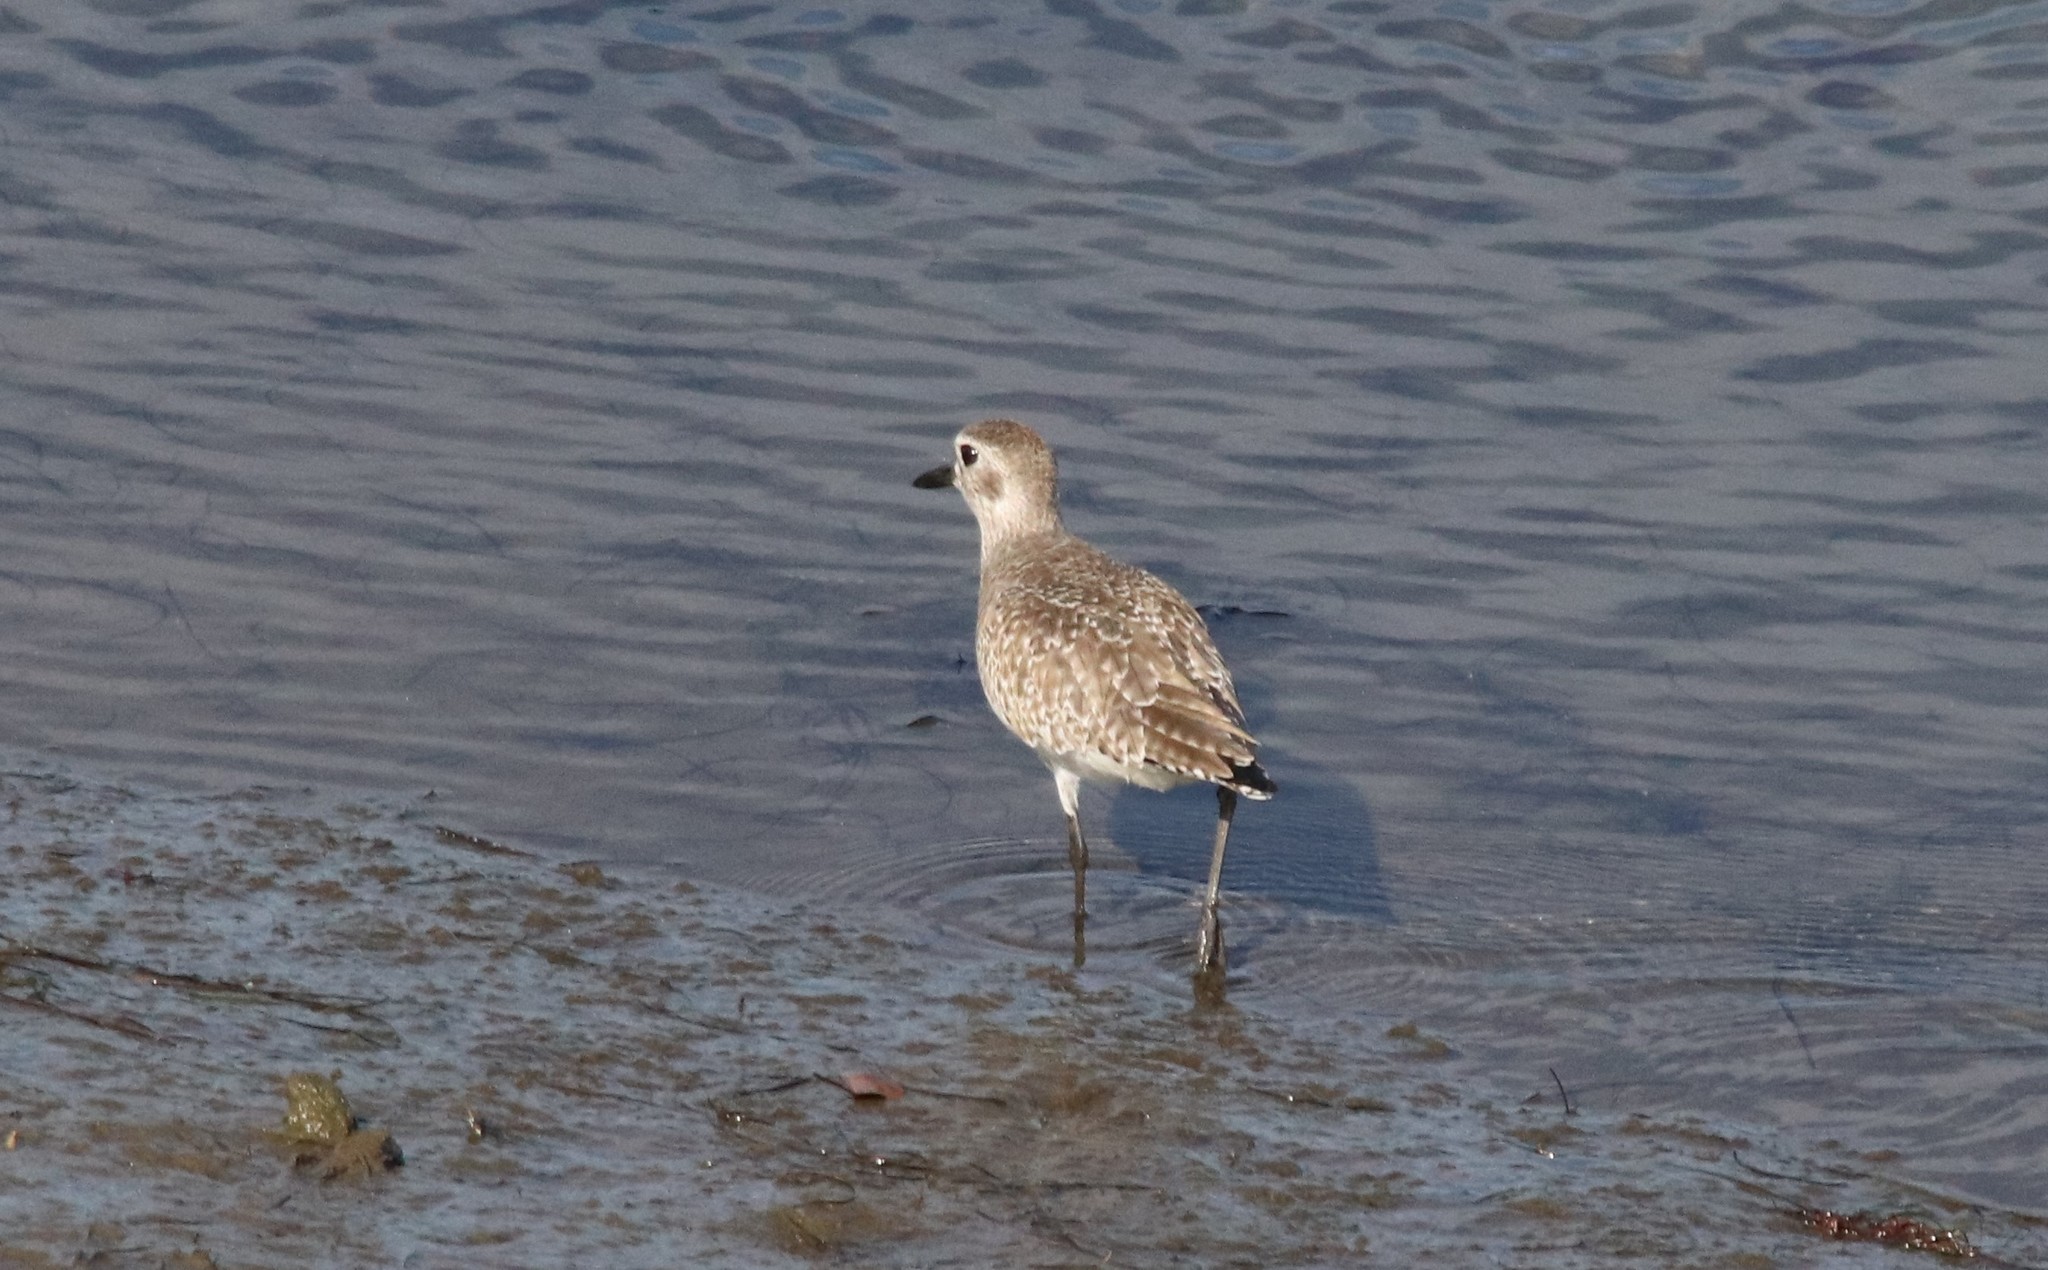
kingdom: Animalia
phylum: Chordata
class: Aves
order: Charadriiformes
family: Charadriidae
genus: Pluvialis
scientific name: Pluvialis squatarola
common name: Grey plover
